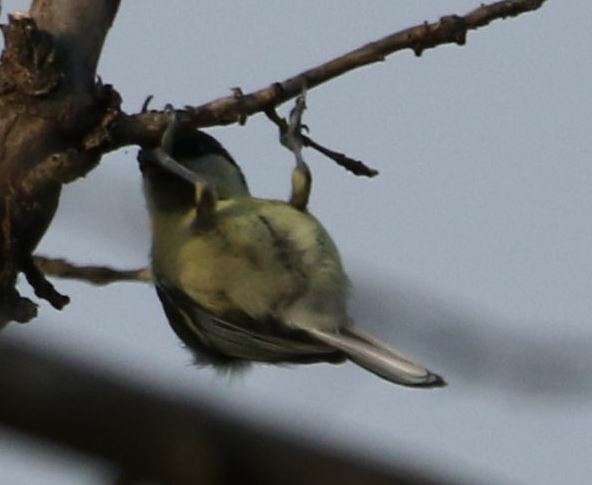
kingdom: Animalia
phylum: Chordata
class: Aves
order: Passeriformes
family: Paridae
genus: Parus
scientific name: Parus major
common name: Great tit
